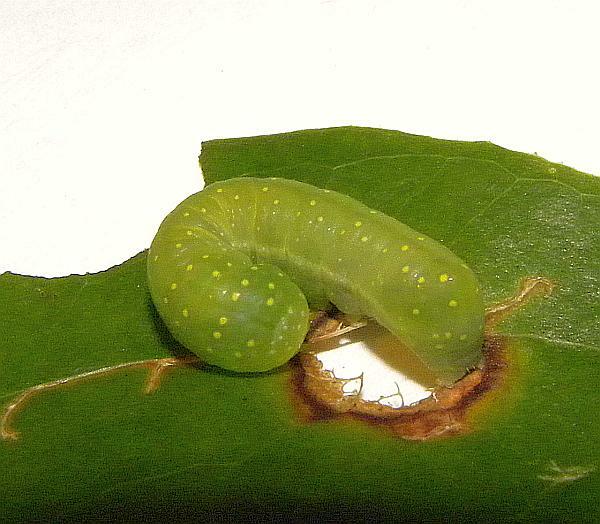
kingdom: Animalia
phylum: Arthropoda
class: Insecta
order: Lepidoptera
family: Noctuidae
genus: Phosphila
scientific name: Phosphila miselioides
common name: Spotted phosphila moth
